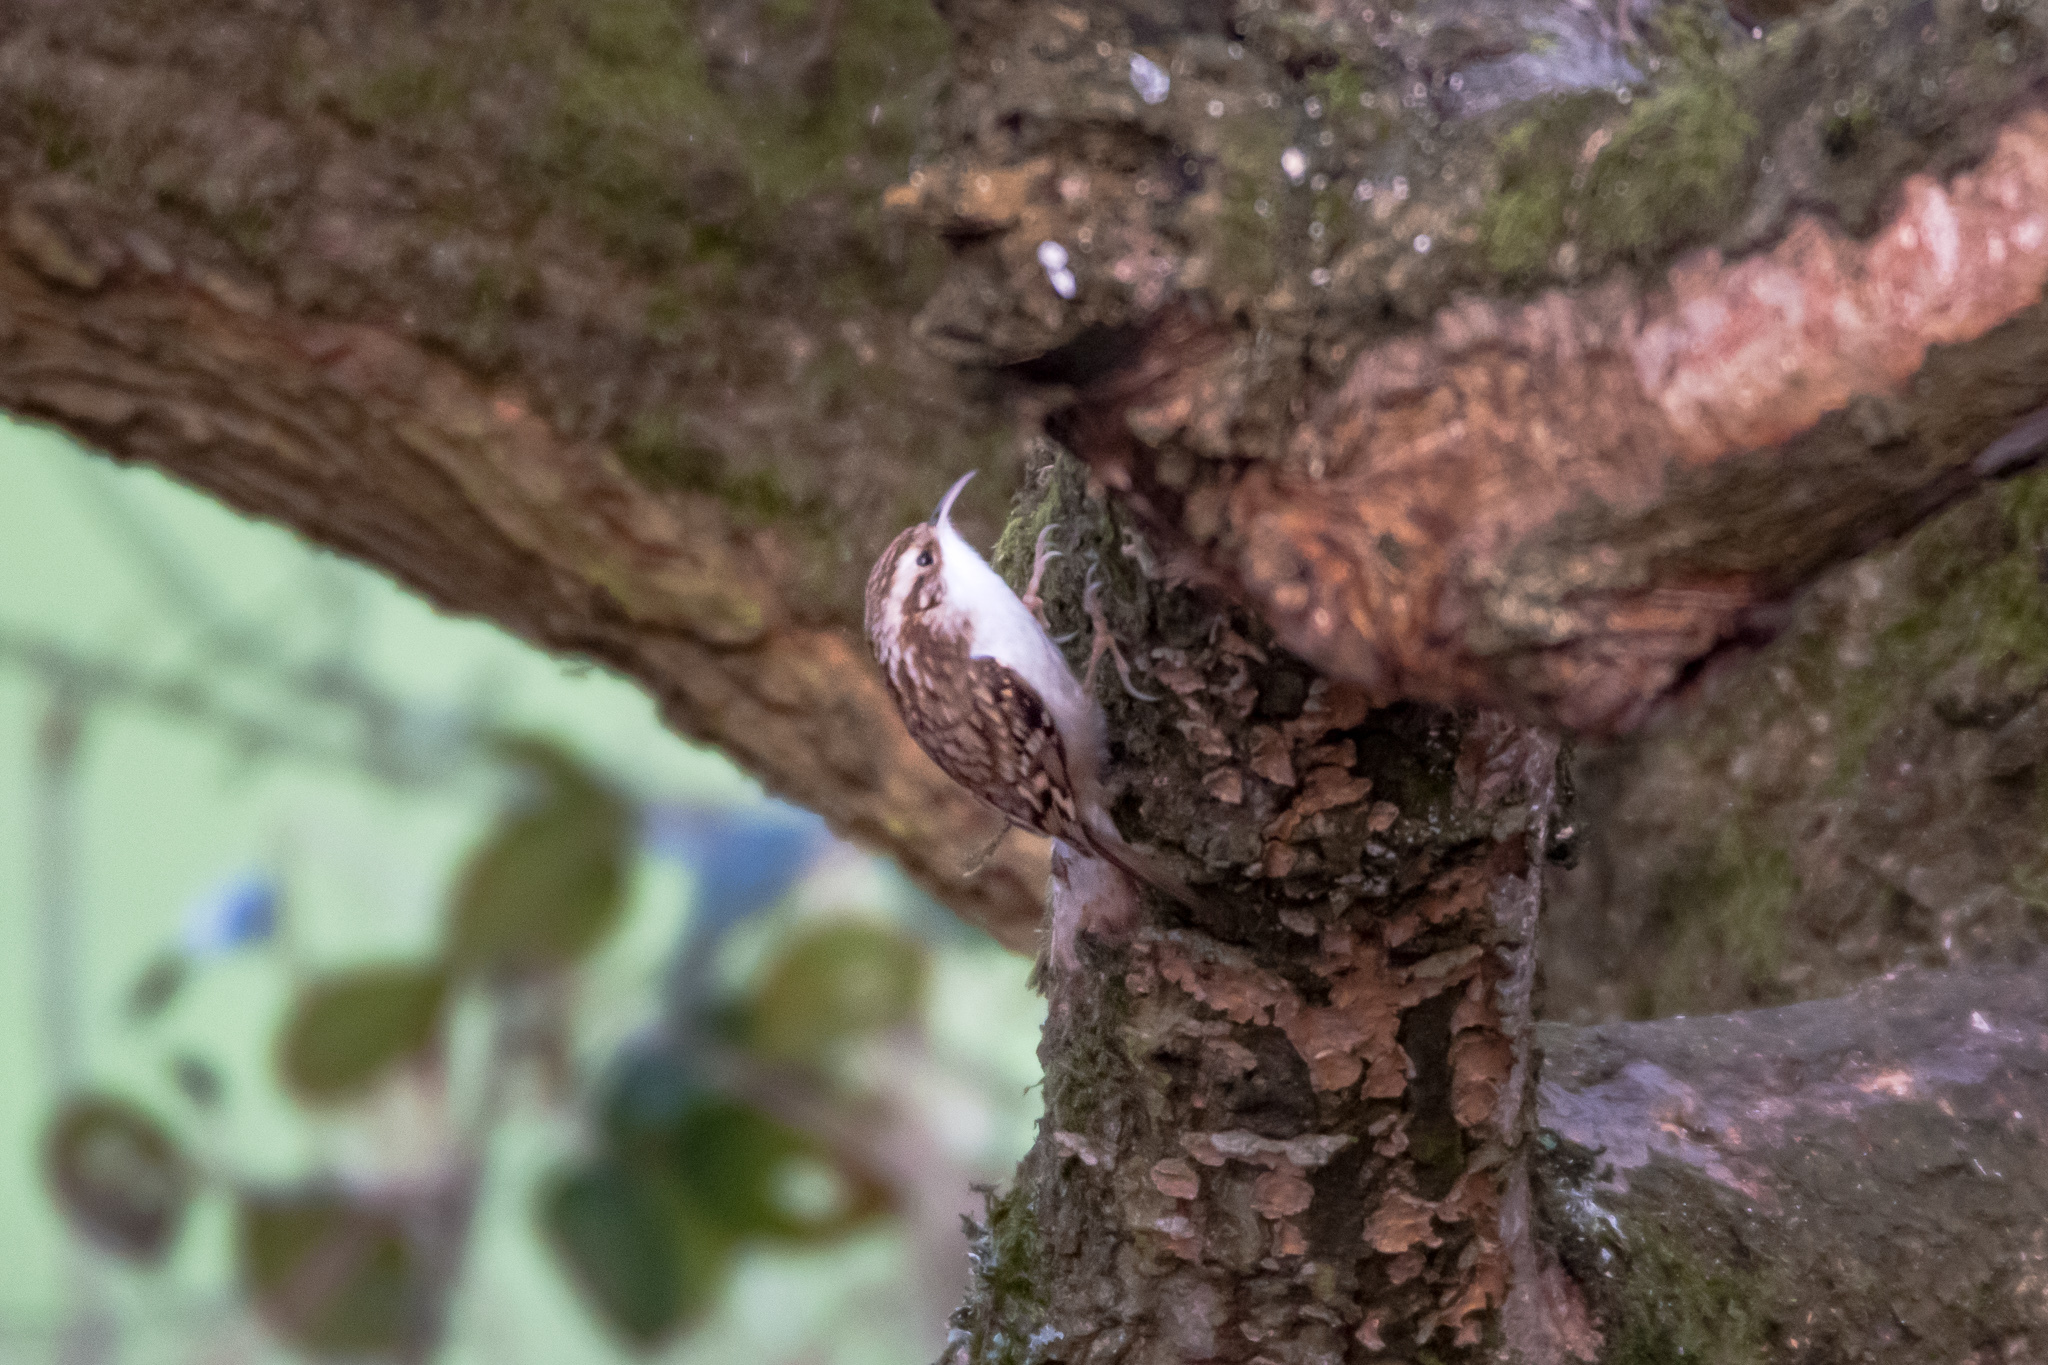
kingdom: Animalia
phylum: Chordata
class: Aves
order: Passeriformes
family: Certhiidae
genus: Certhia
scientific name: Certhia familiaris
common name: Eurasian treecreeper
